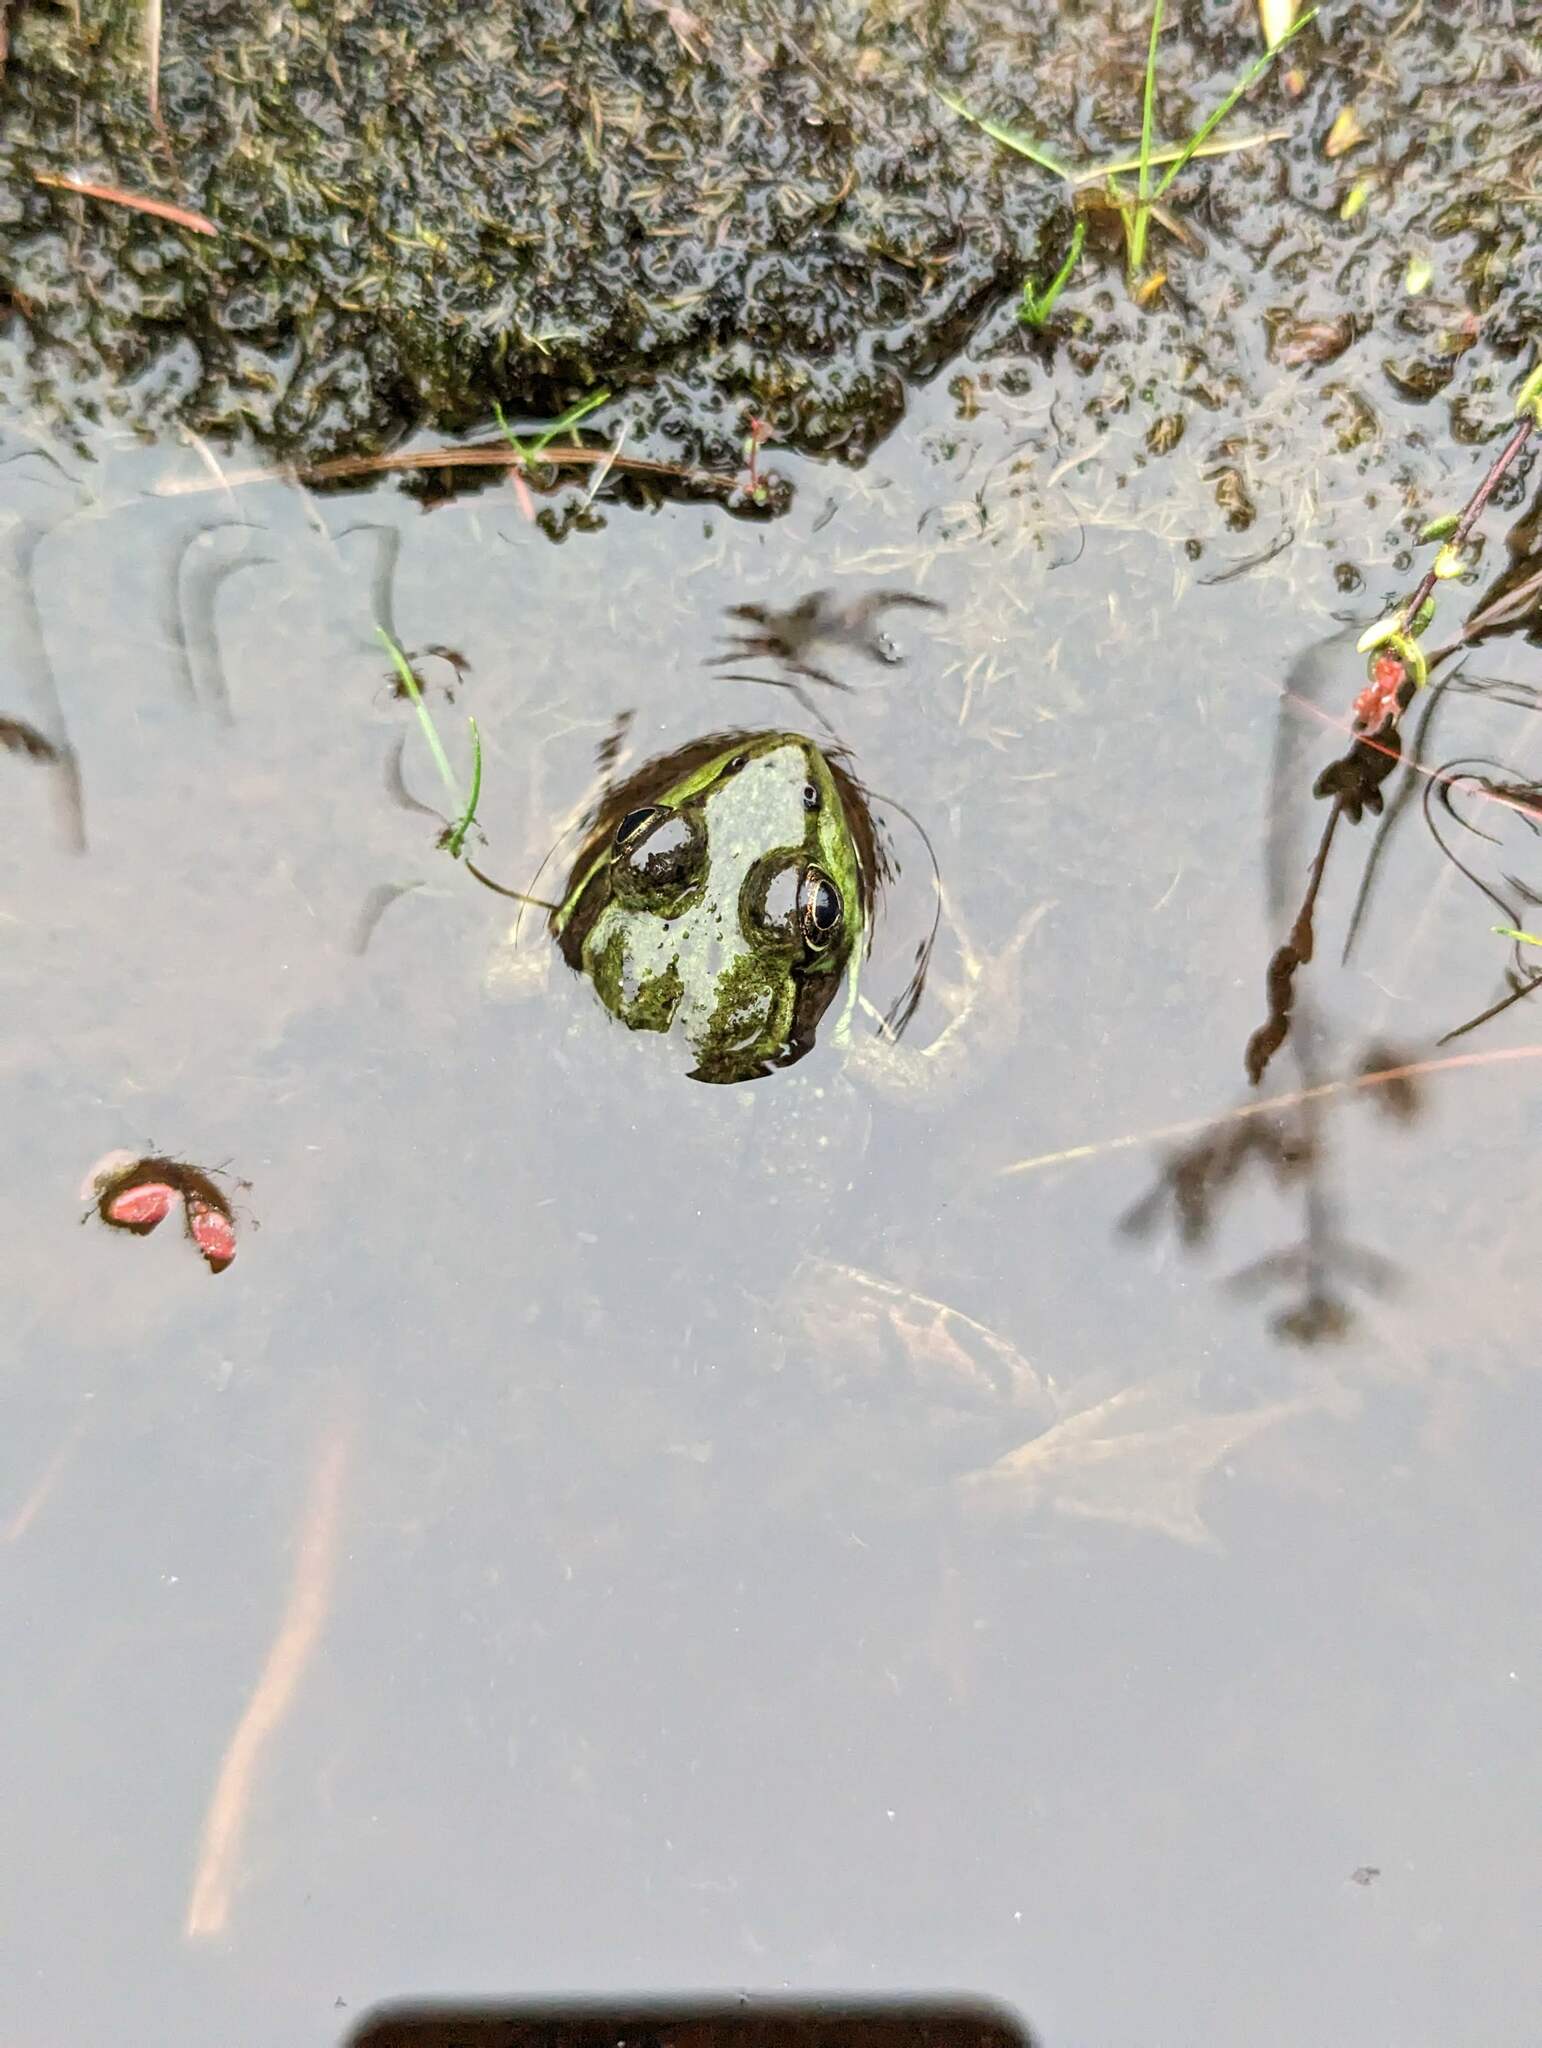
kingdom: Animalia
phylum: Chordata
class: Amphibia
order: Anura
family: Ranidae
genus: Lithobates
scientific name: Lithobates clamitans
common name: Green frog
